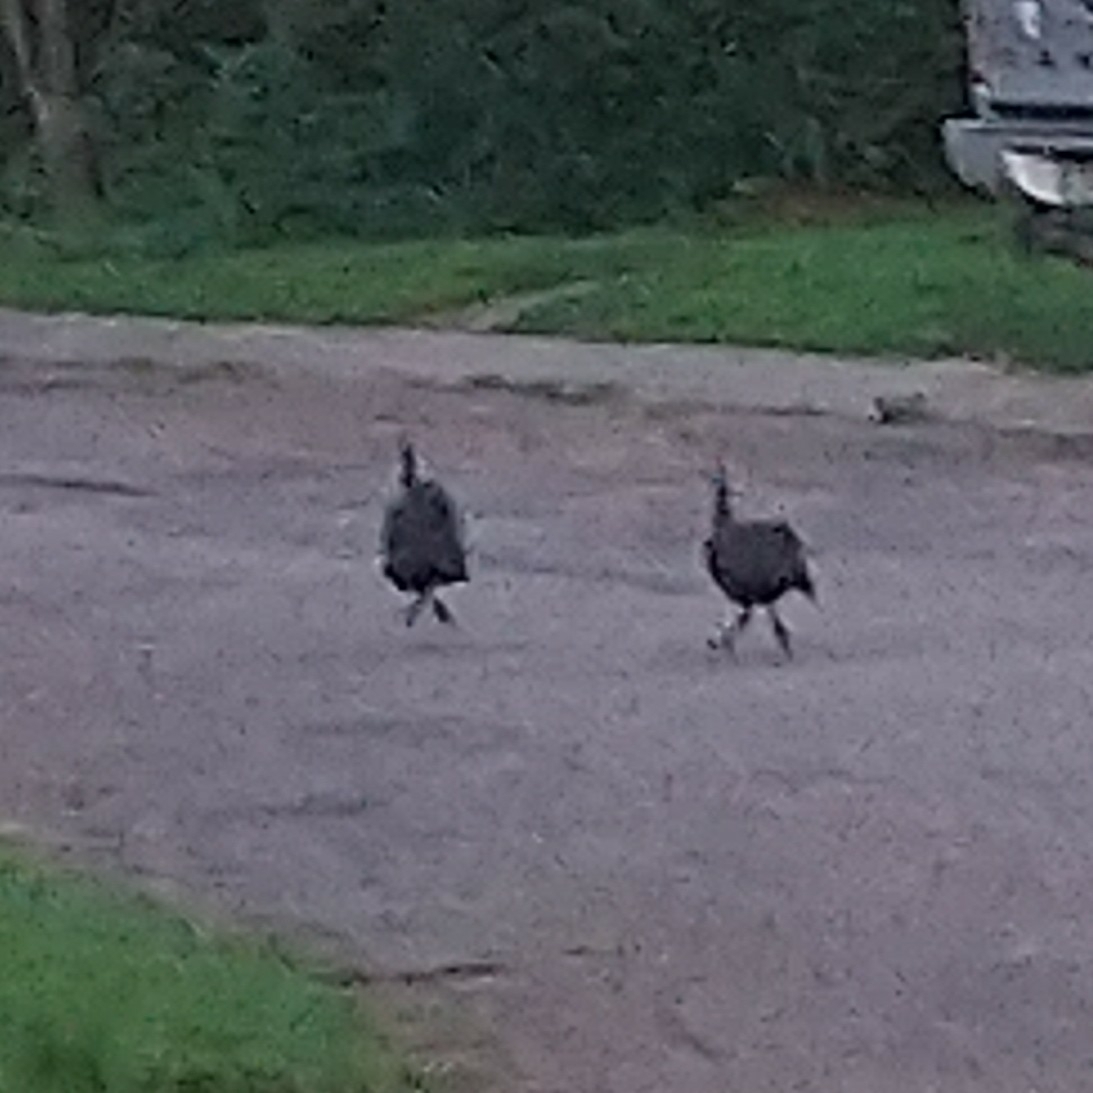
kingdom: Animalia
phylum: Chordata
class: Aves
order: Galliformes
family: Numididae
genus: Numida
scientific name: Numida meleagris
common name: Helmeted guineafowl
